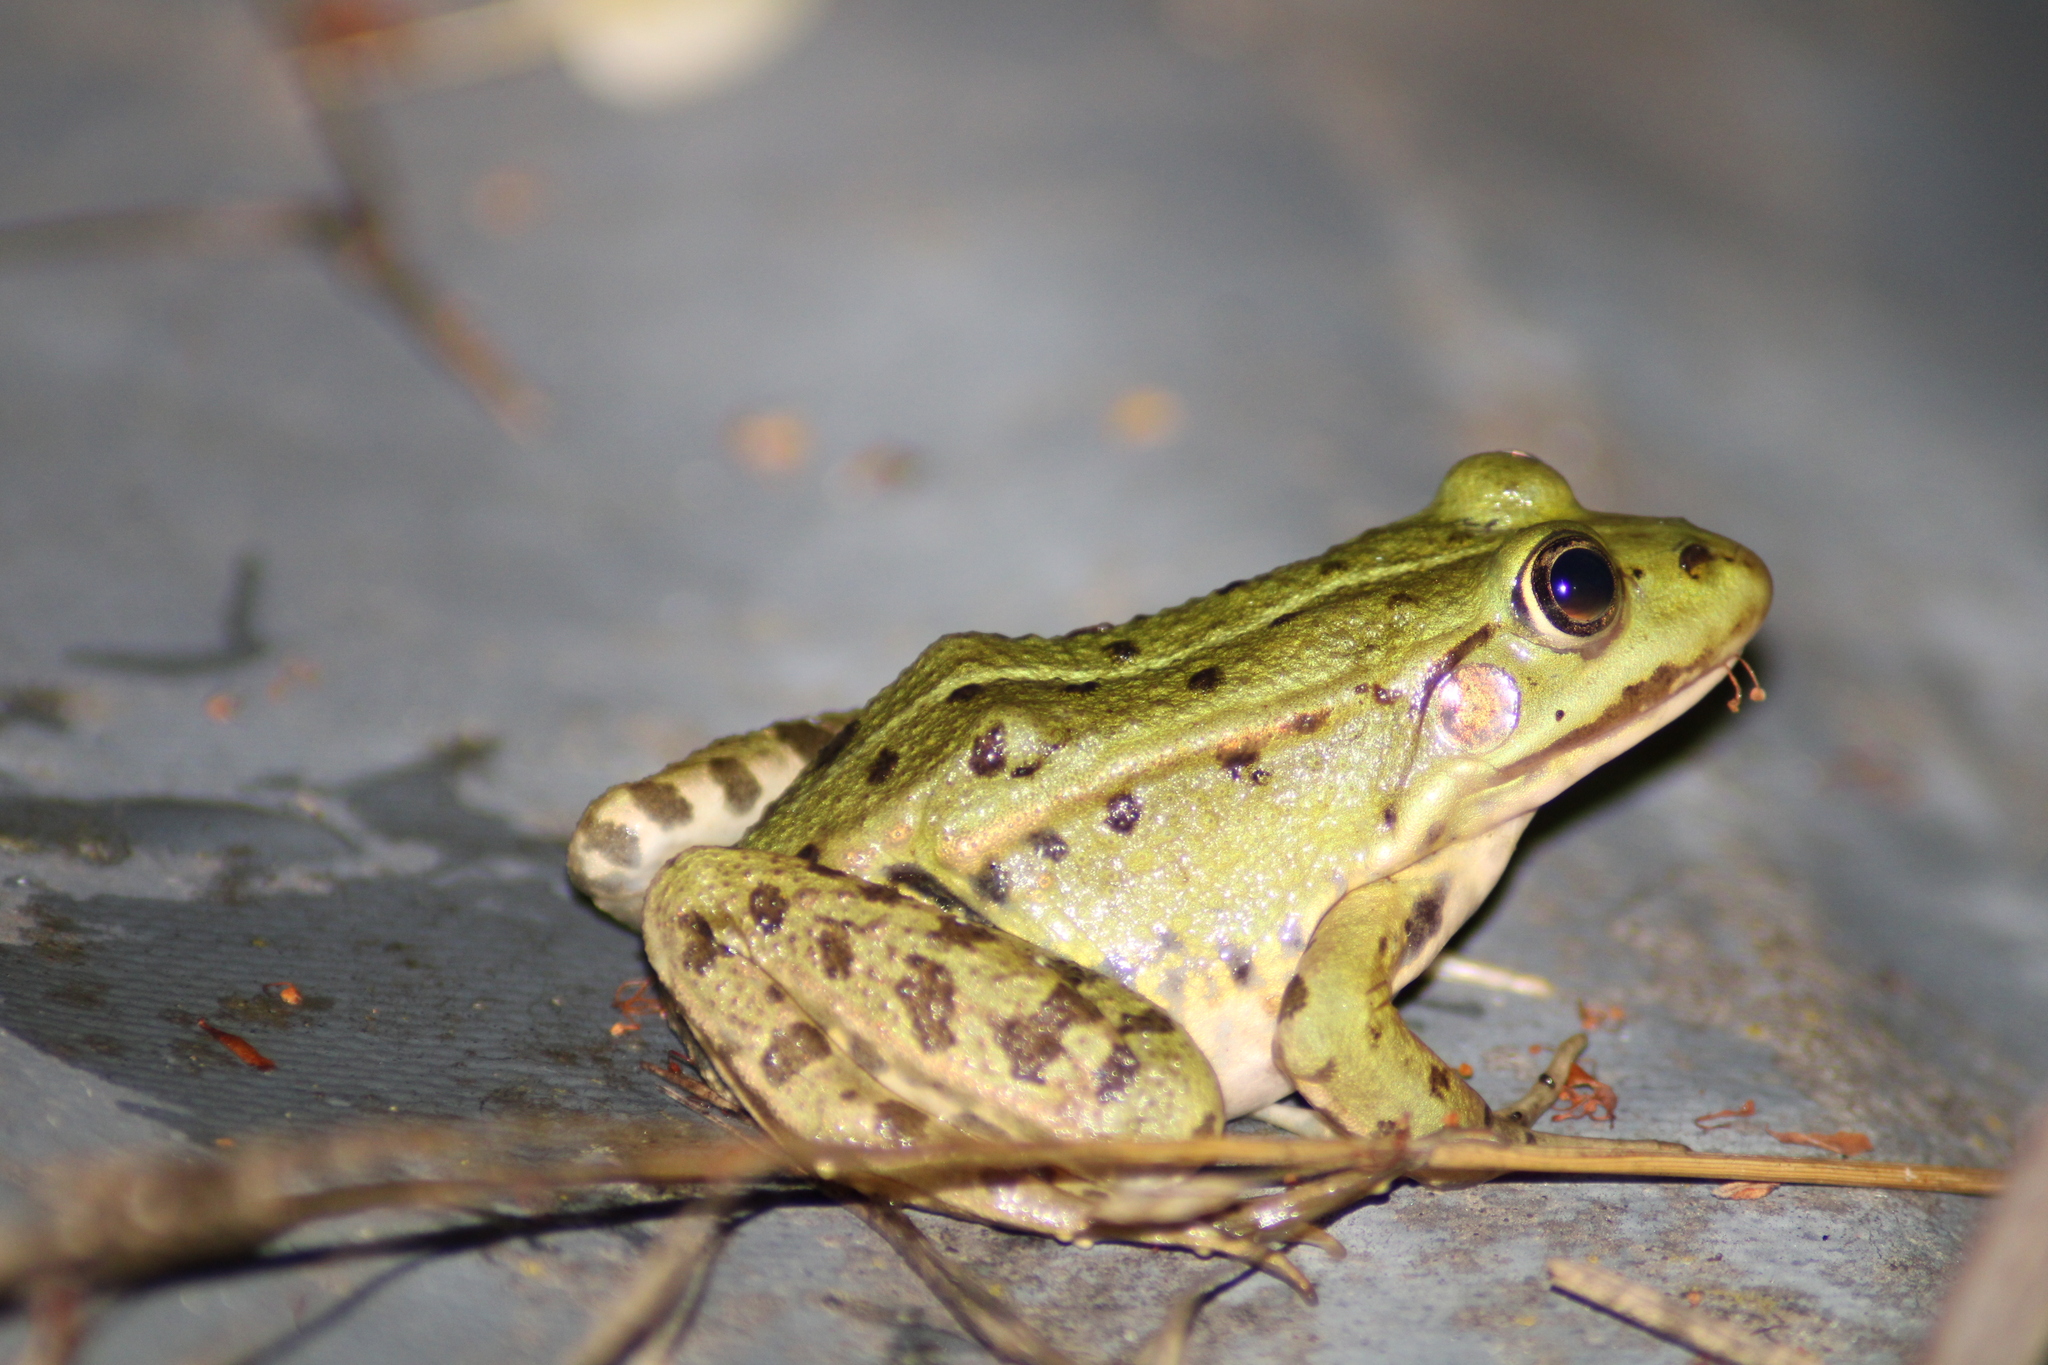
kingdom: Animalia
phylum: Chordata
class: Amphibia
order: Anura
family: Ranidae
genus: Pelophylax
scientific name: Pelophylax
